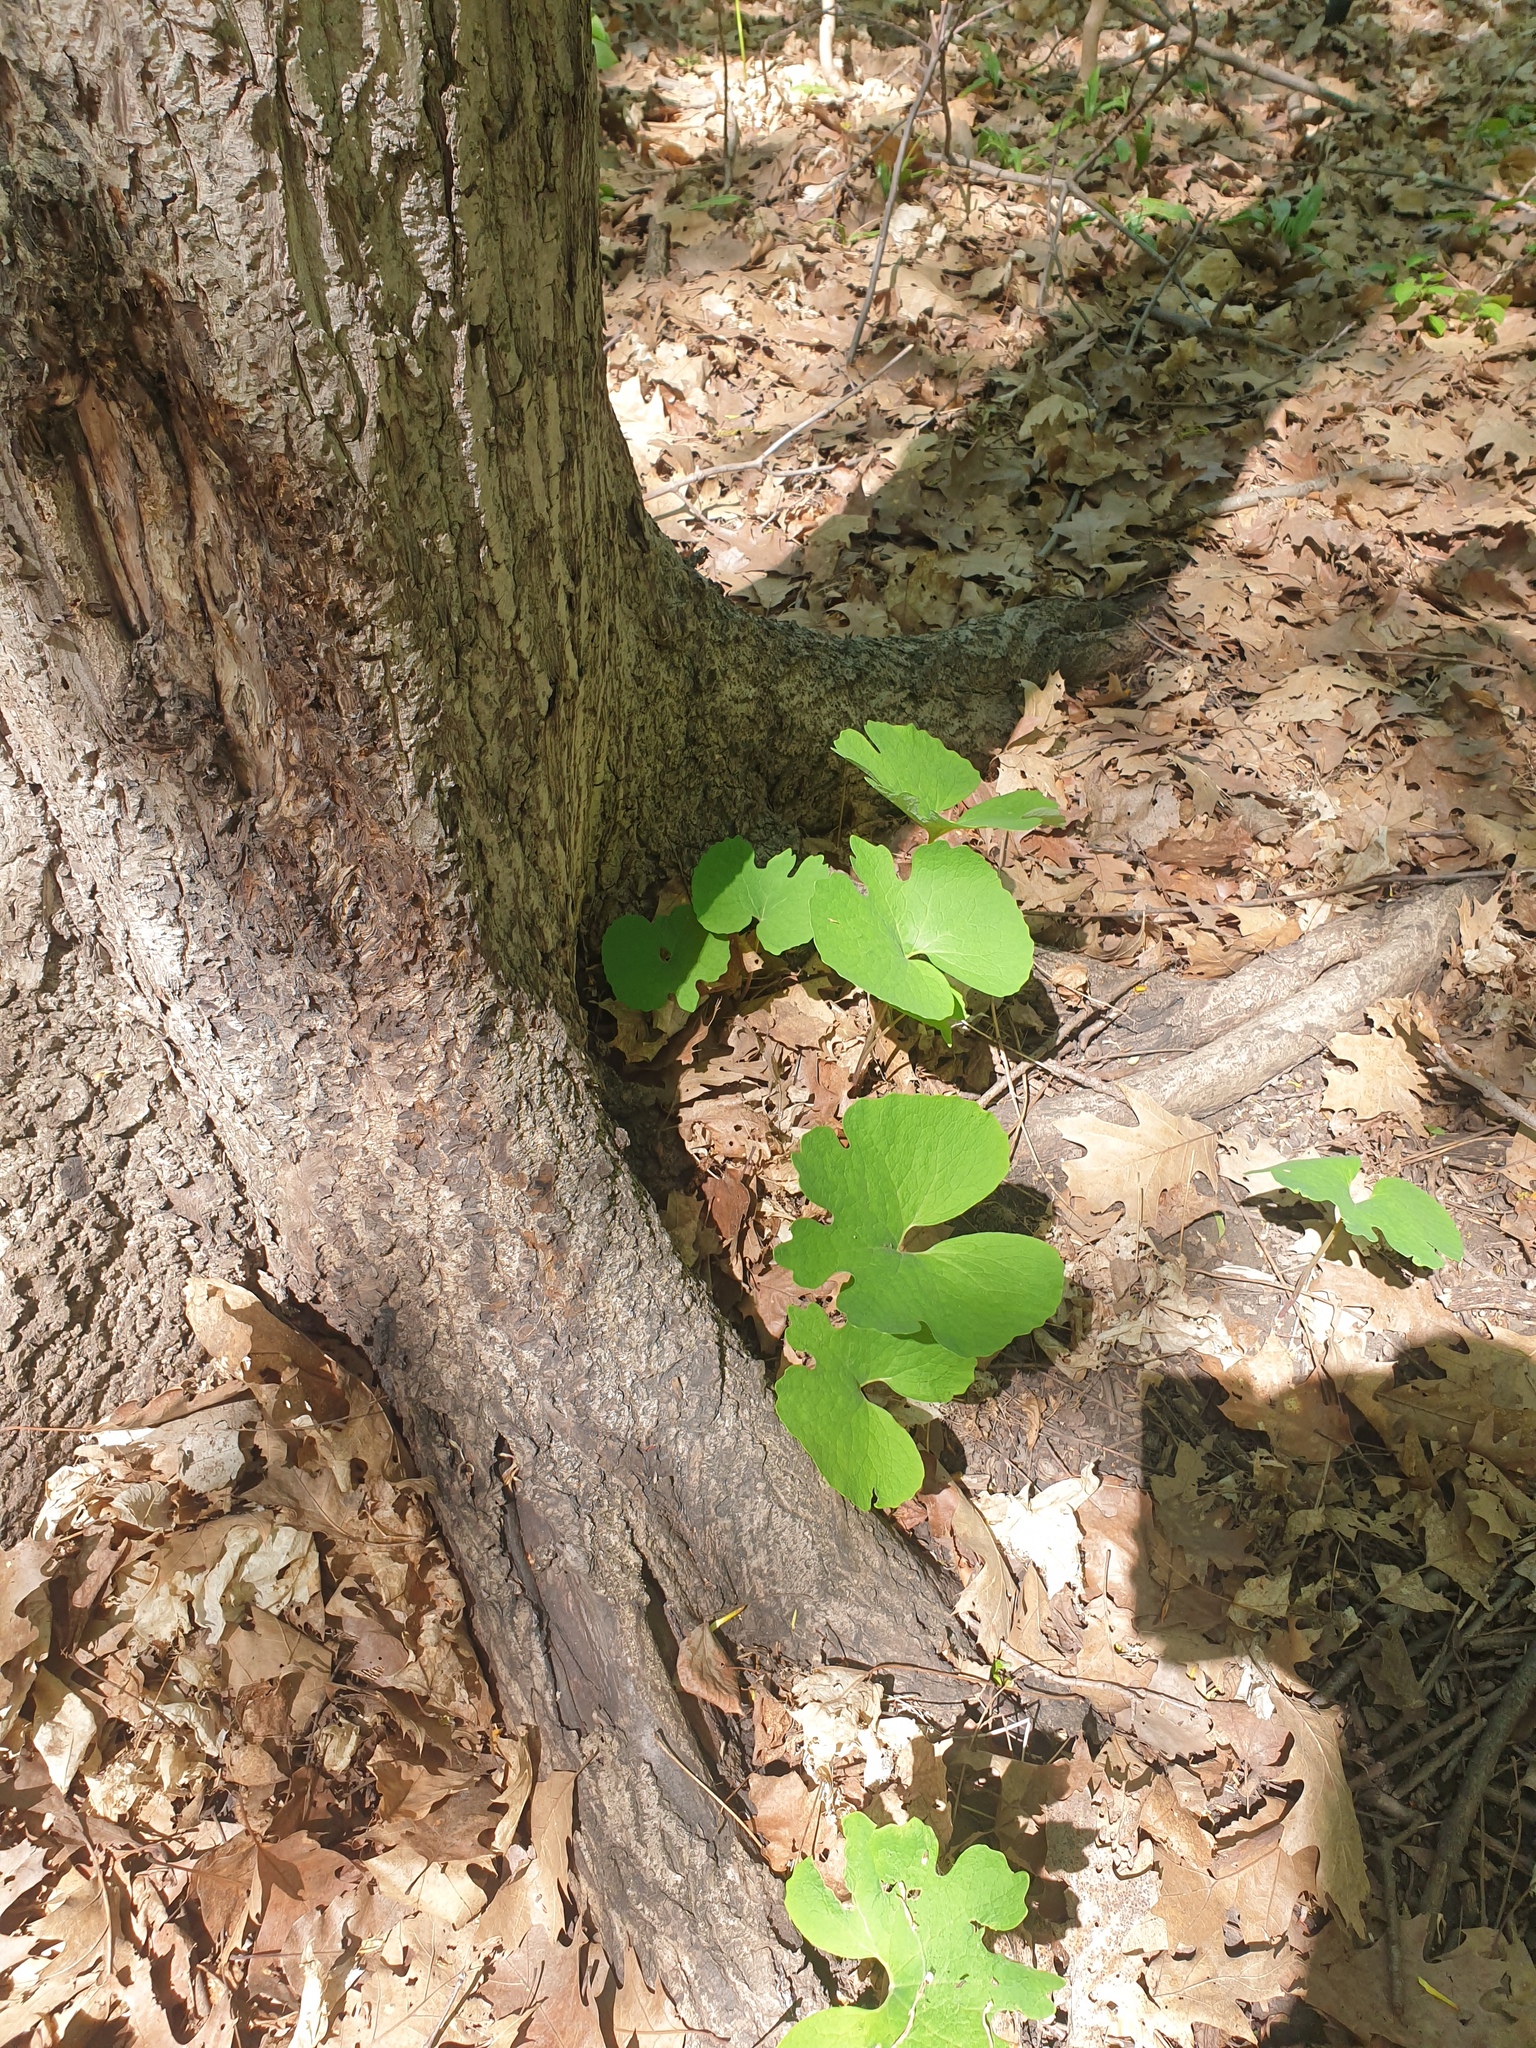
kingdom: Plantae
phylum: Tracheophyta
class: Magnoliopsida
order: Ranunculales
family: Papaveraceae
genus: Sanguinaria
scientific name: Sanguinaria canadensis
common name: Bloodroot
